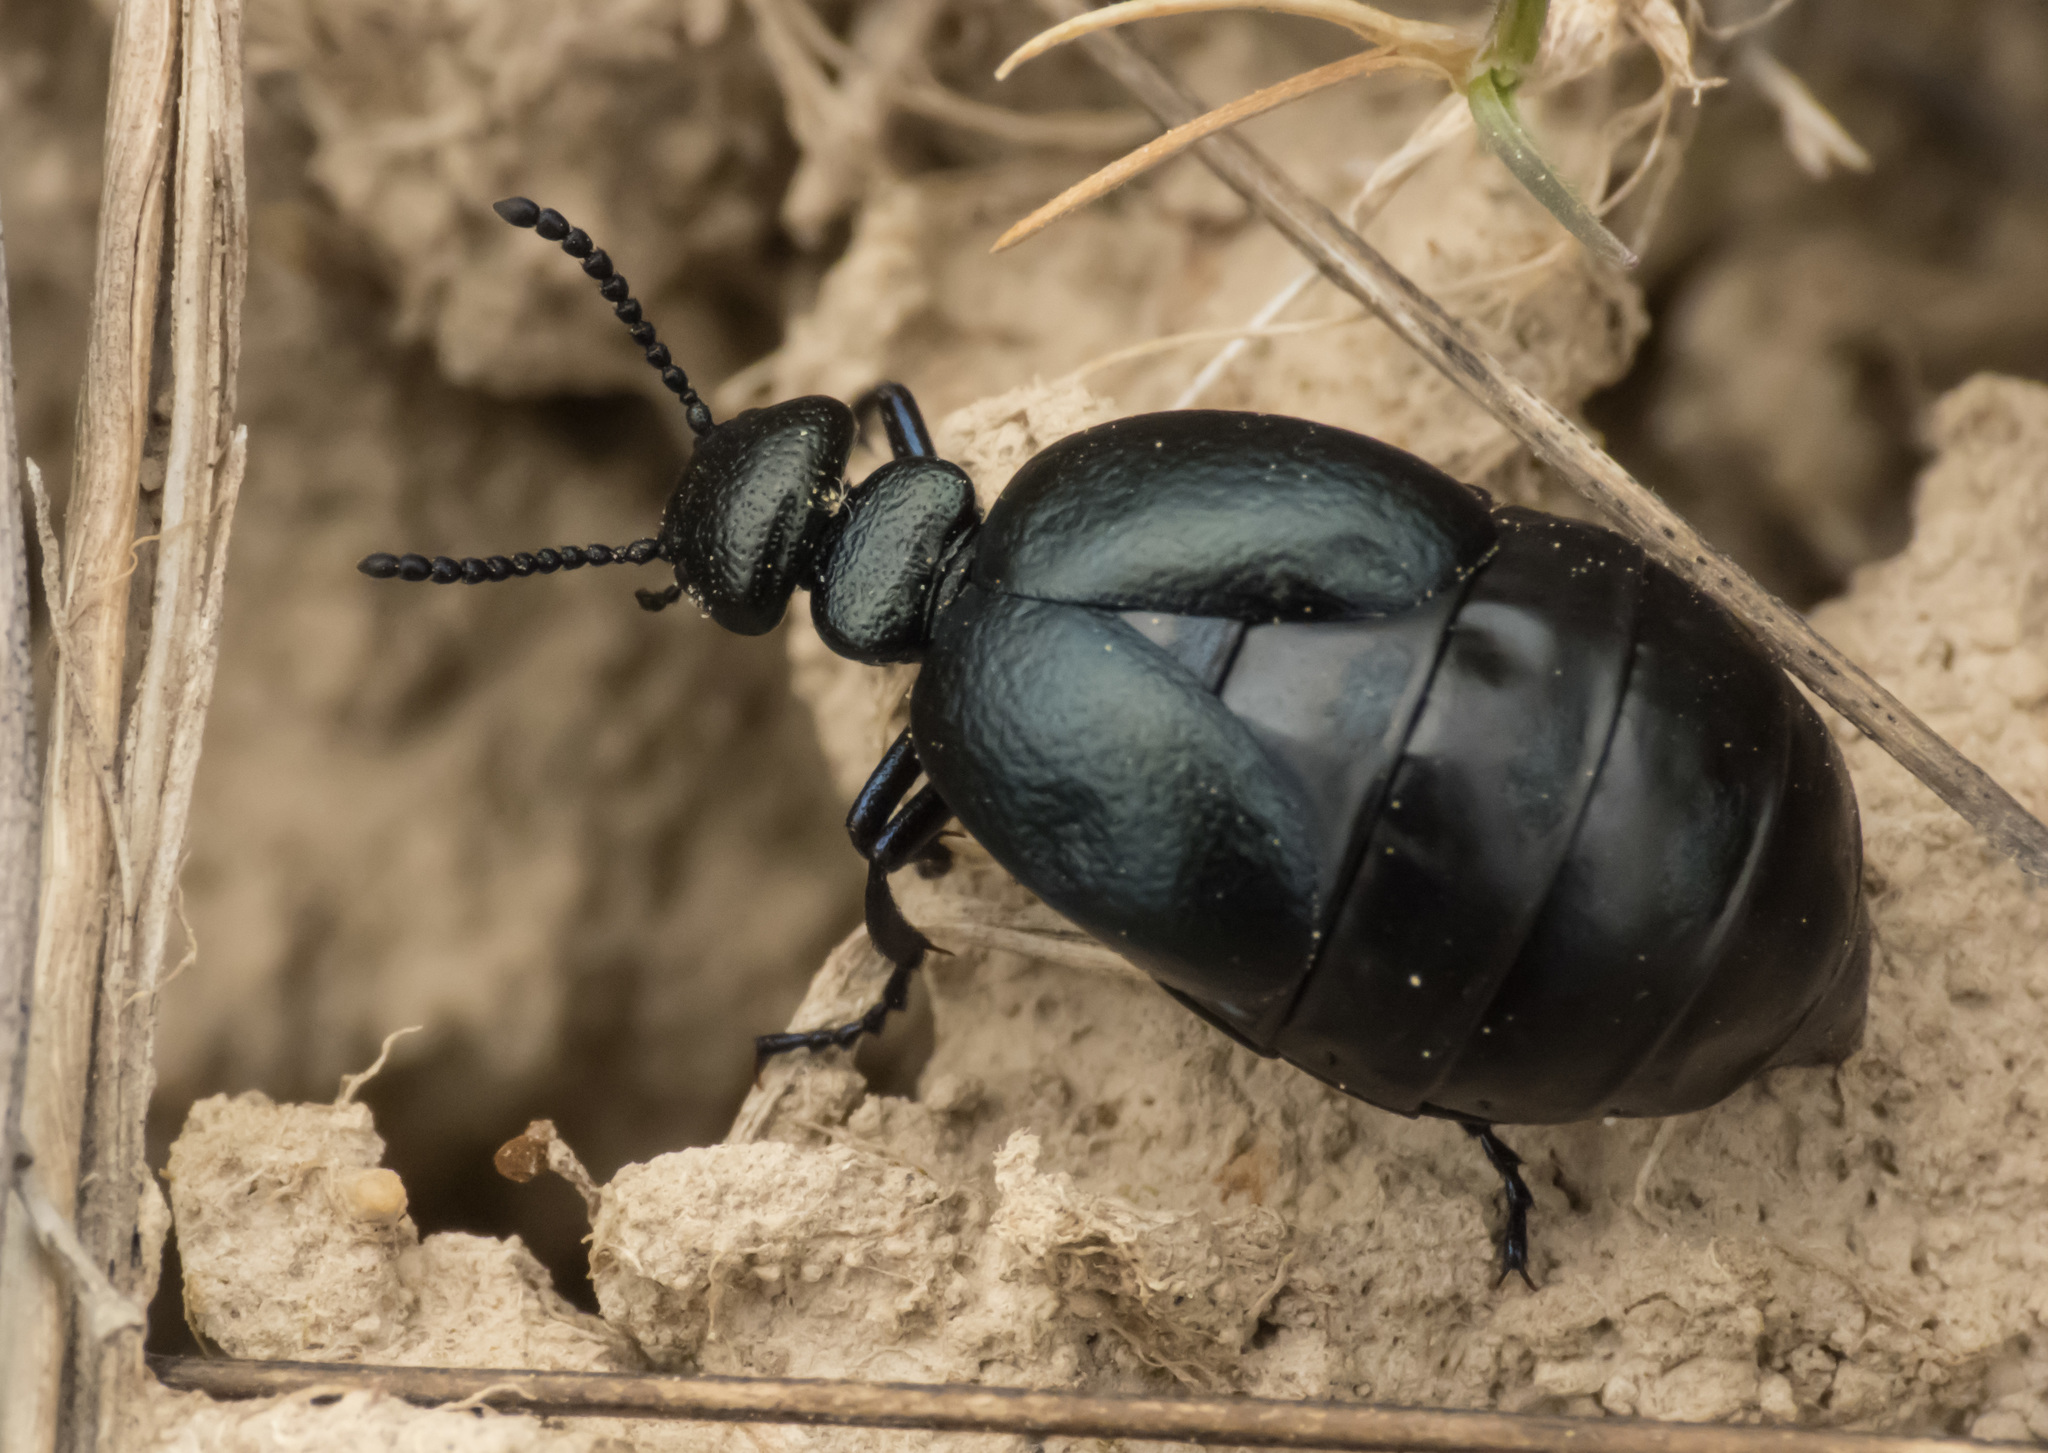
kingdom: Animalia
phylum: Arthropoda
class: Insecta
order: Coleoptera
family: Meloidae
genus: Meloe
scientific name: Meloe brevicollis
